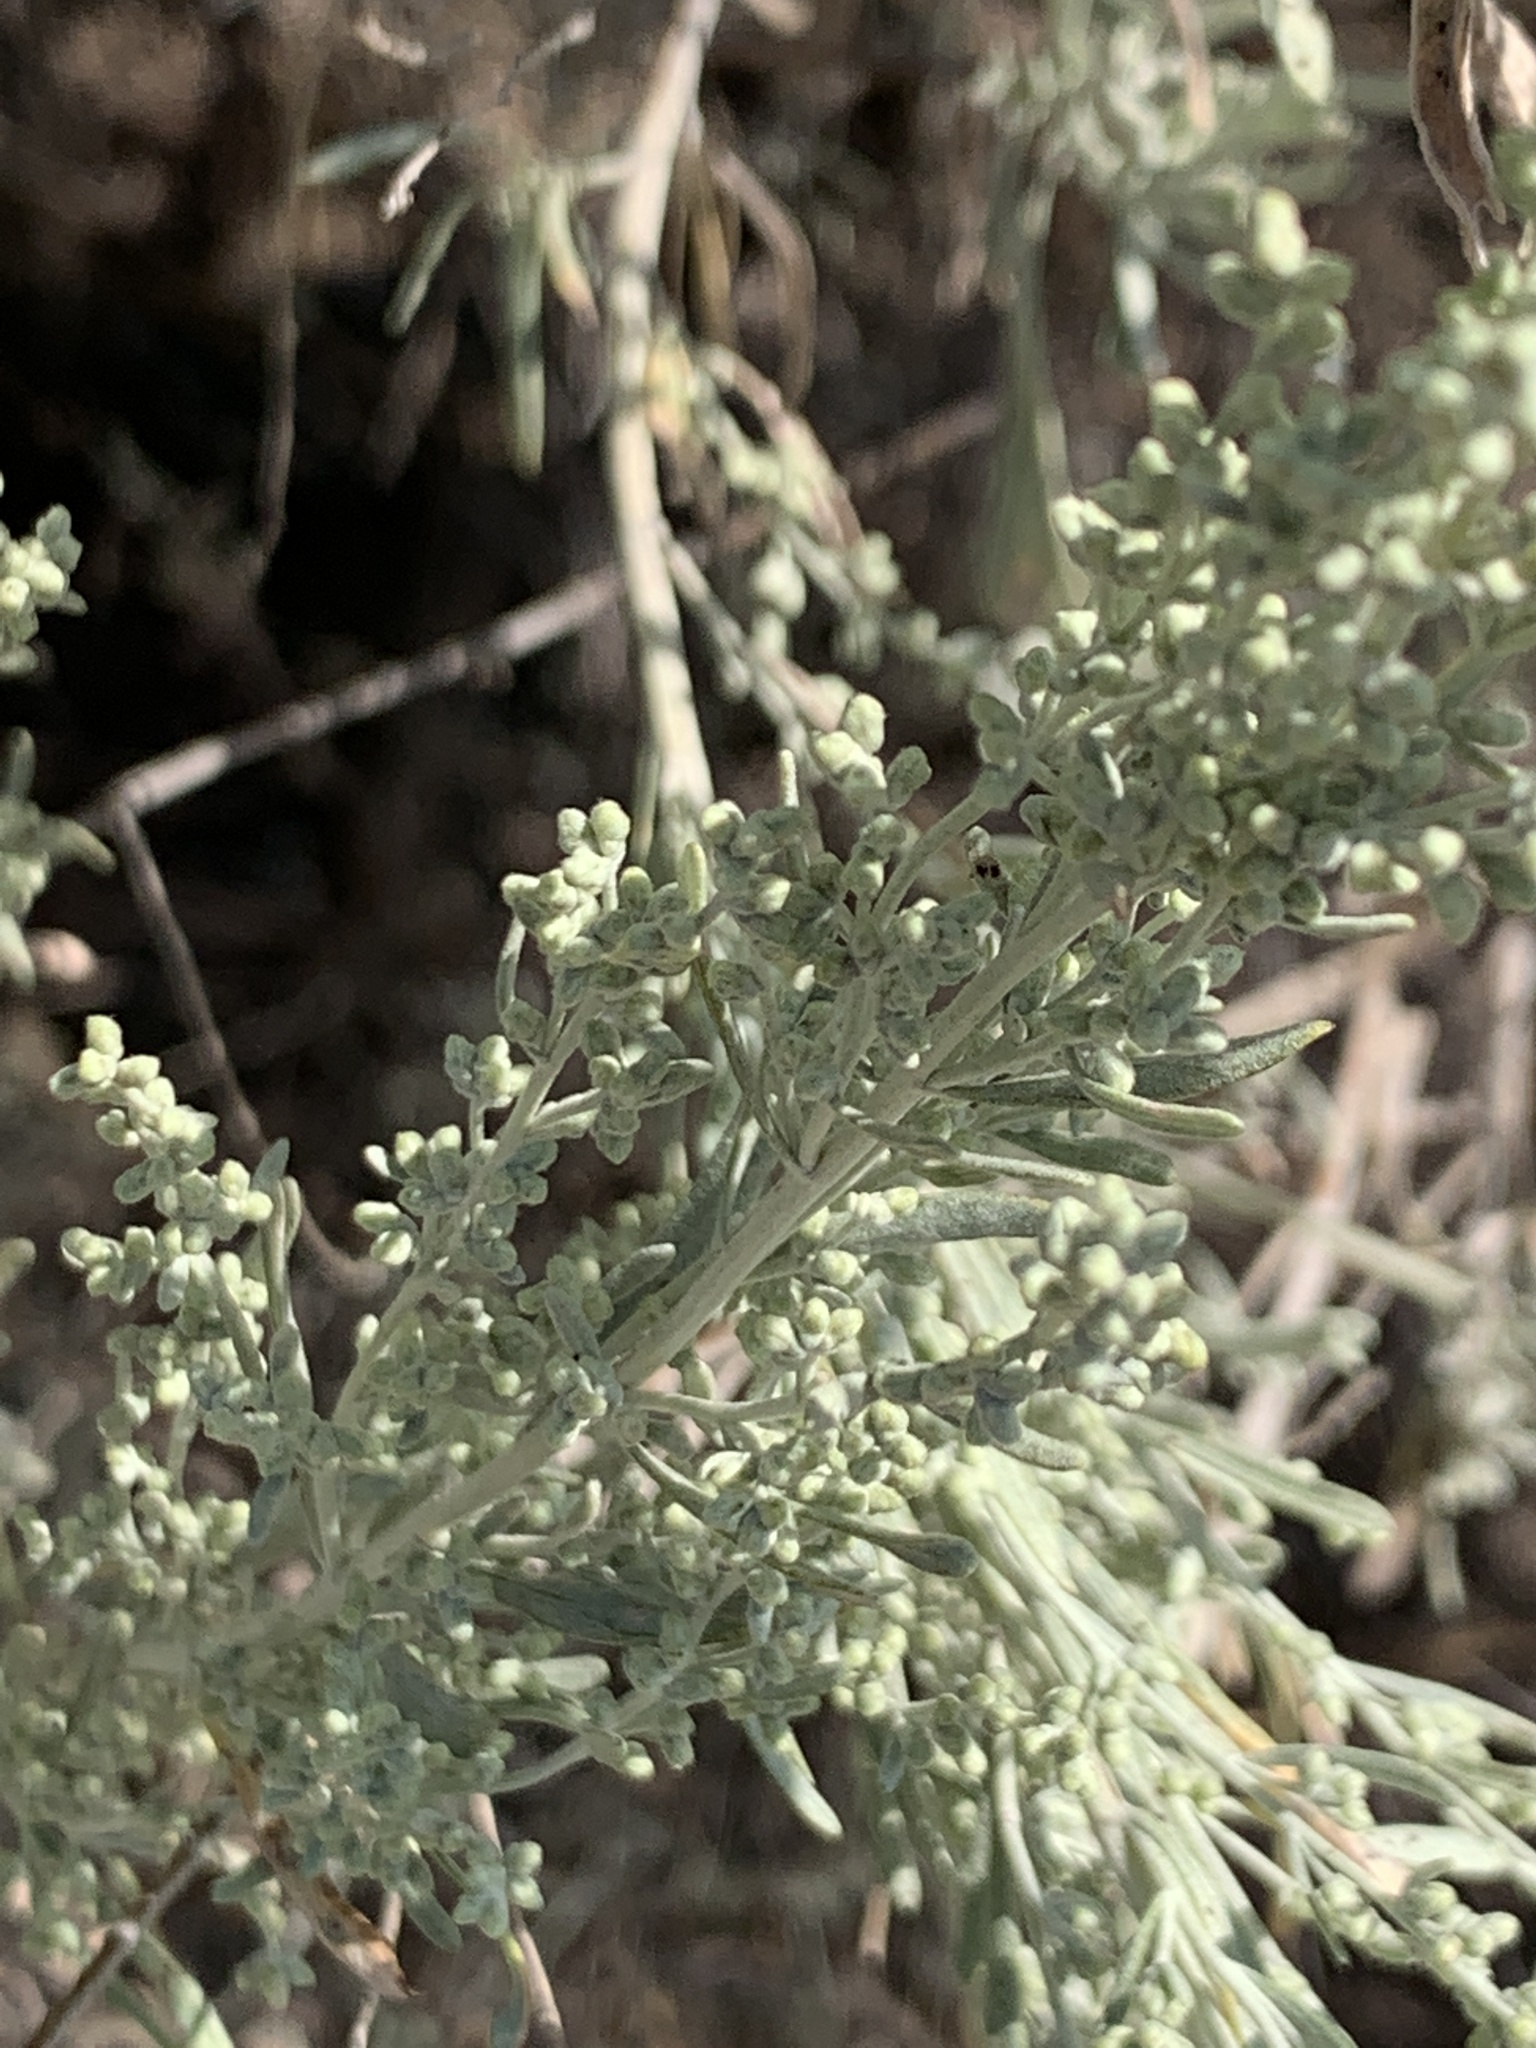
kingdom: Plantae
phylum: Tracheophyta
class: Magnoliopsida
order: Asterales
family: Asteraceae
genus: Artemisia
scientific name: Artemisia tridentata
